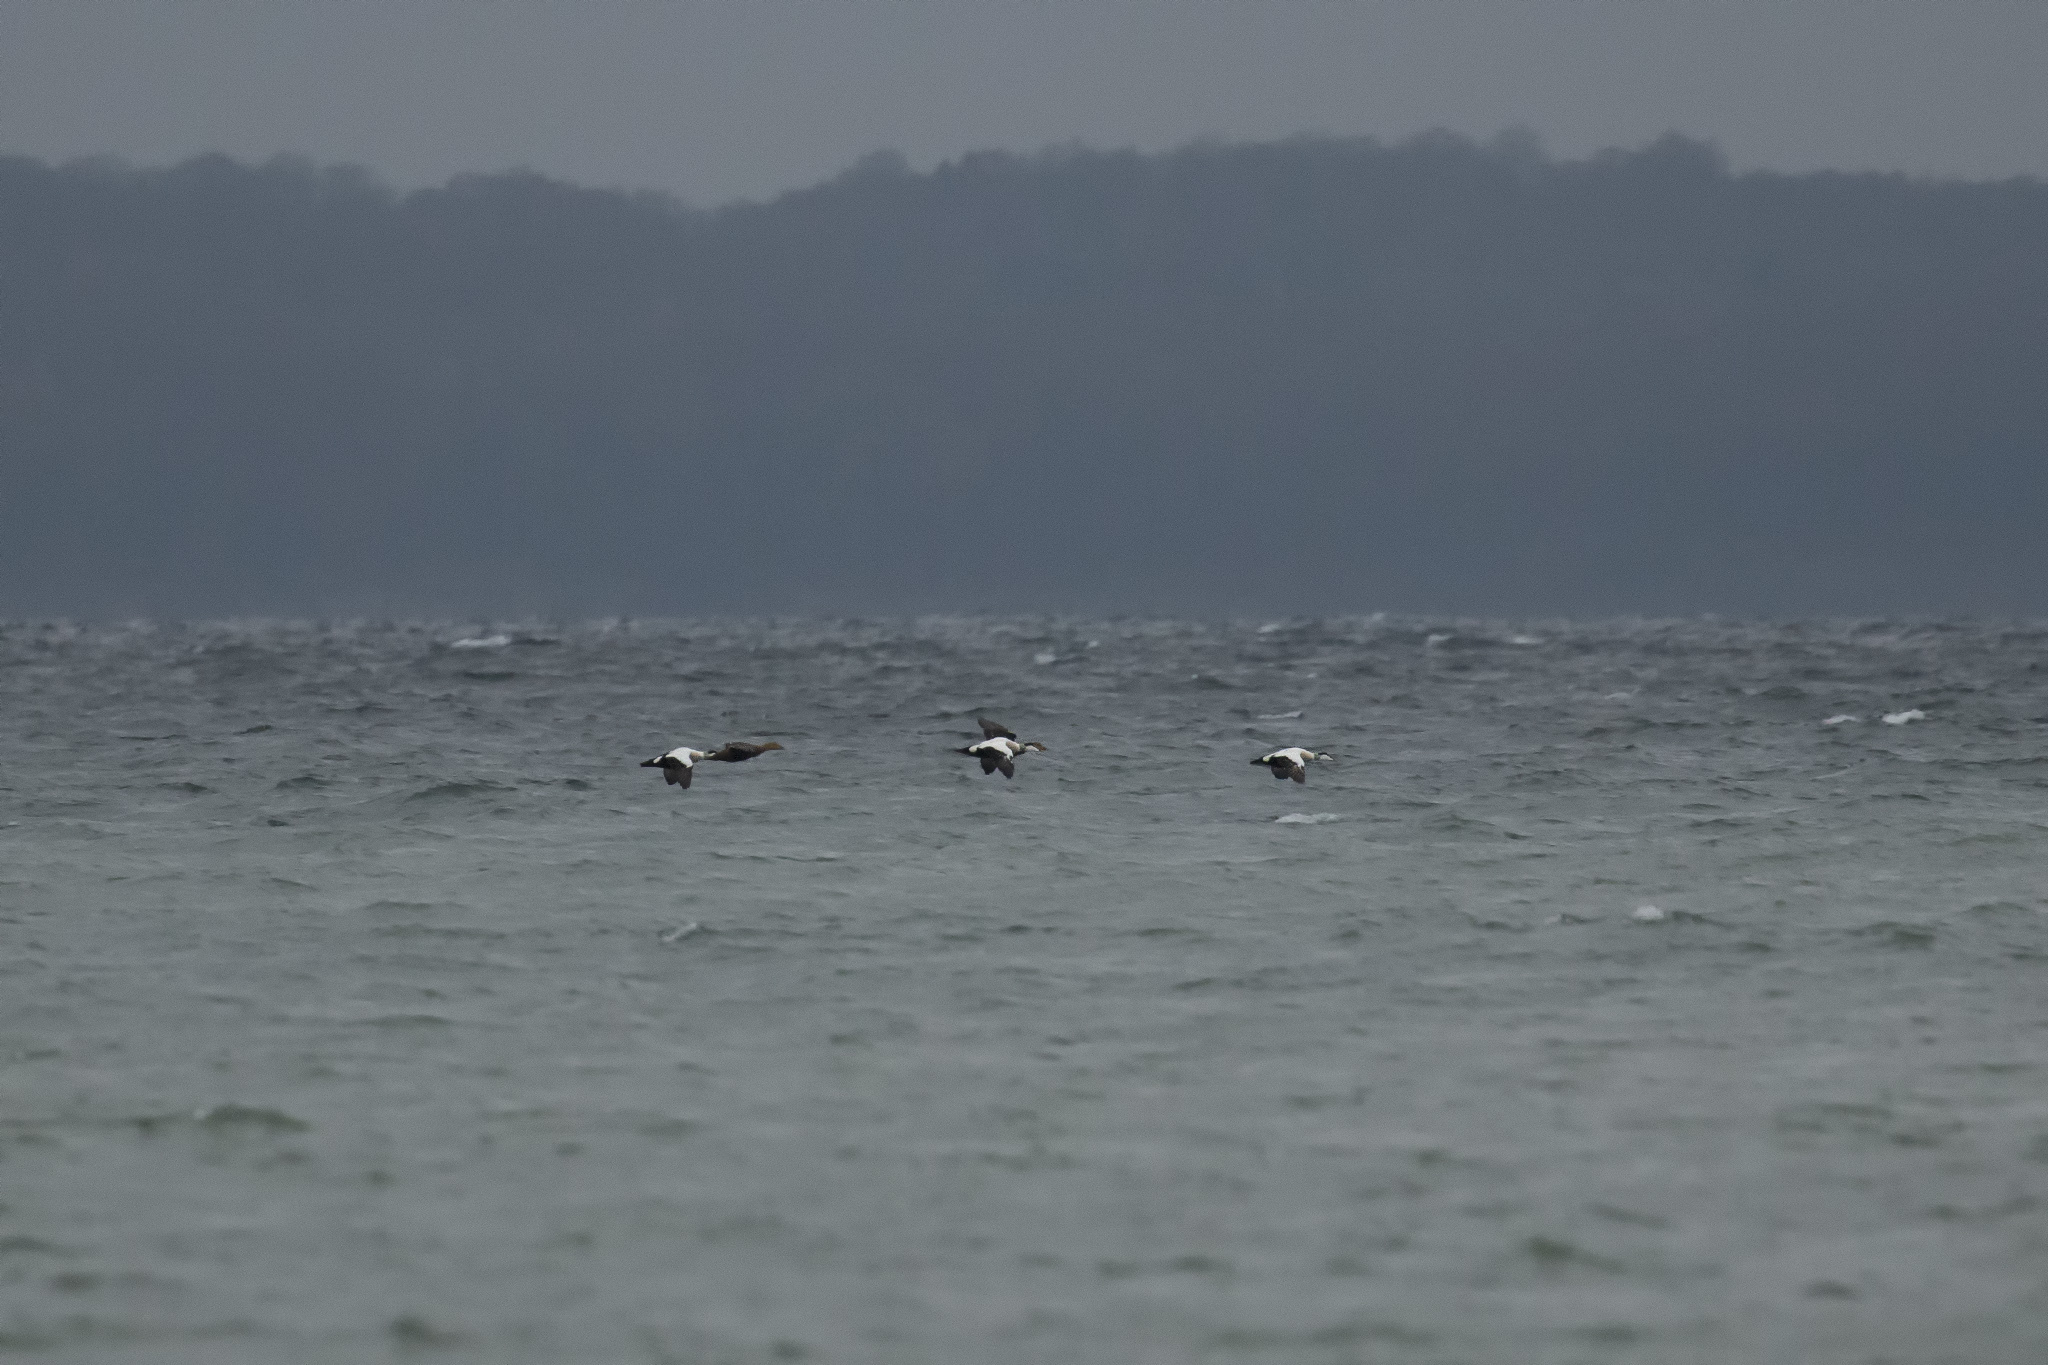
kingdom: Animalia
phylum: Chordata
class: Aves
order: Anseriformes
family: Anatidae
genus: Somateria
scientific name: Somateria mollissima
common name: Common eider
